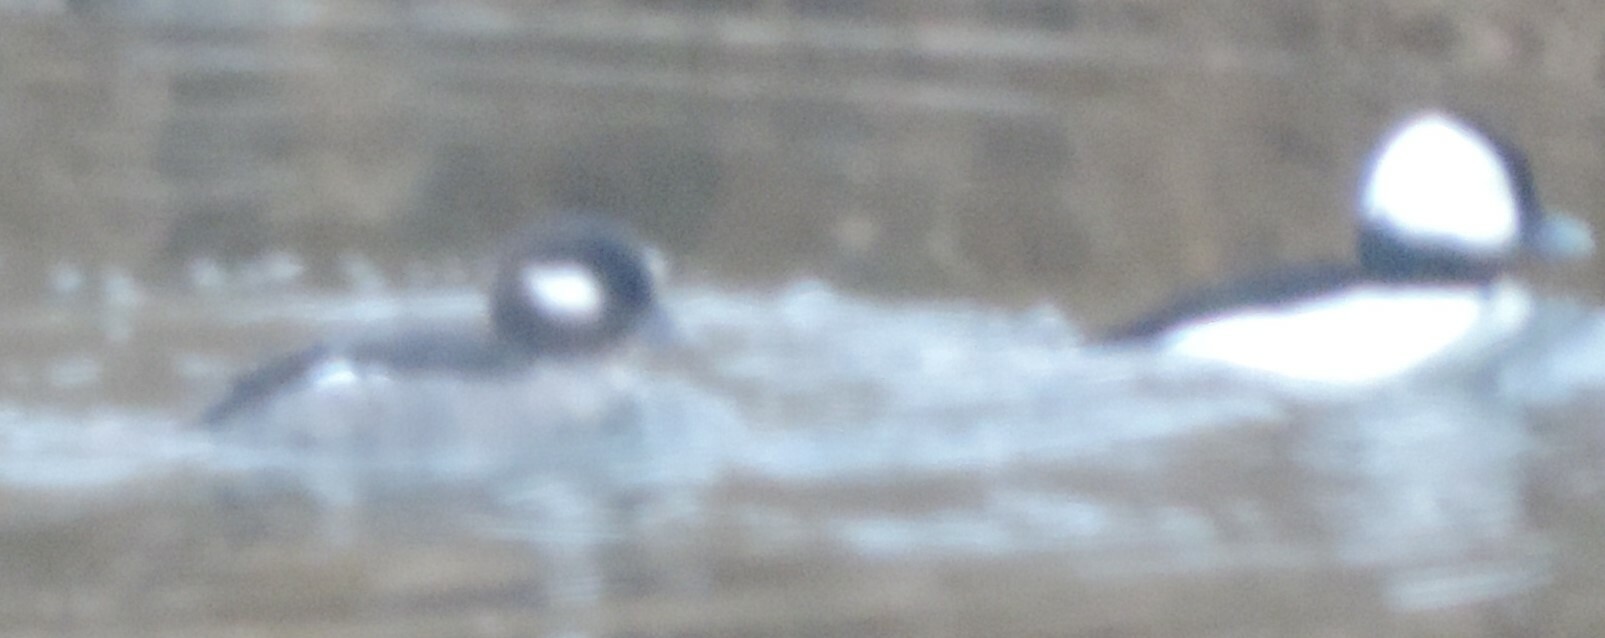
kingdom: Animalia
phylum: Chordata
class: Aves
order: Anseriformes
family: Anatidae
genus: Bucephala
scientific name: Bucephala albeola
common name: Bufflehead
